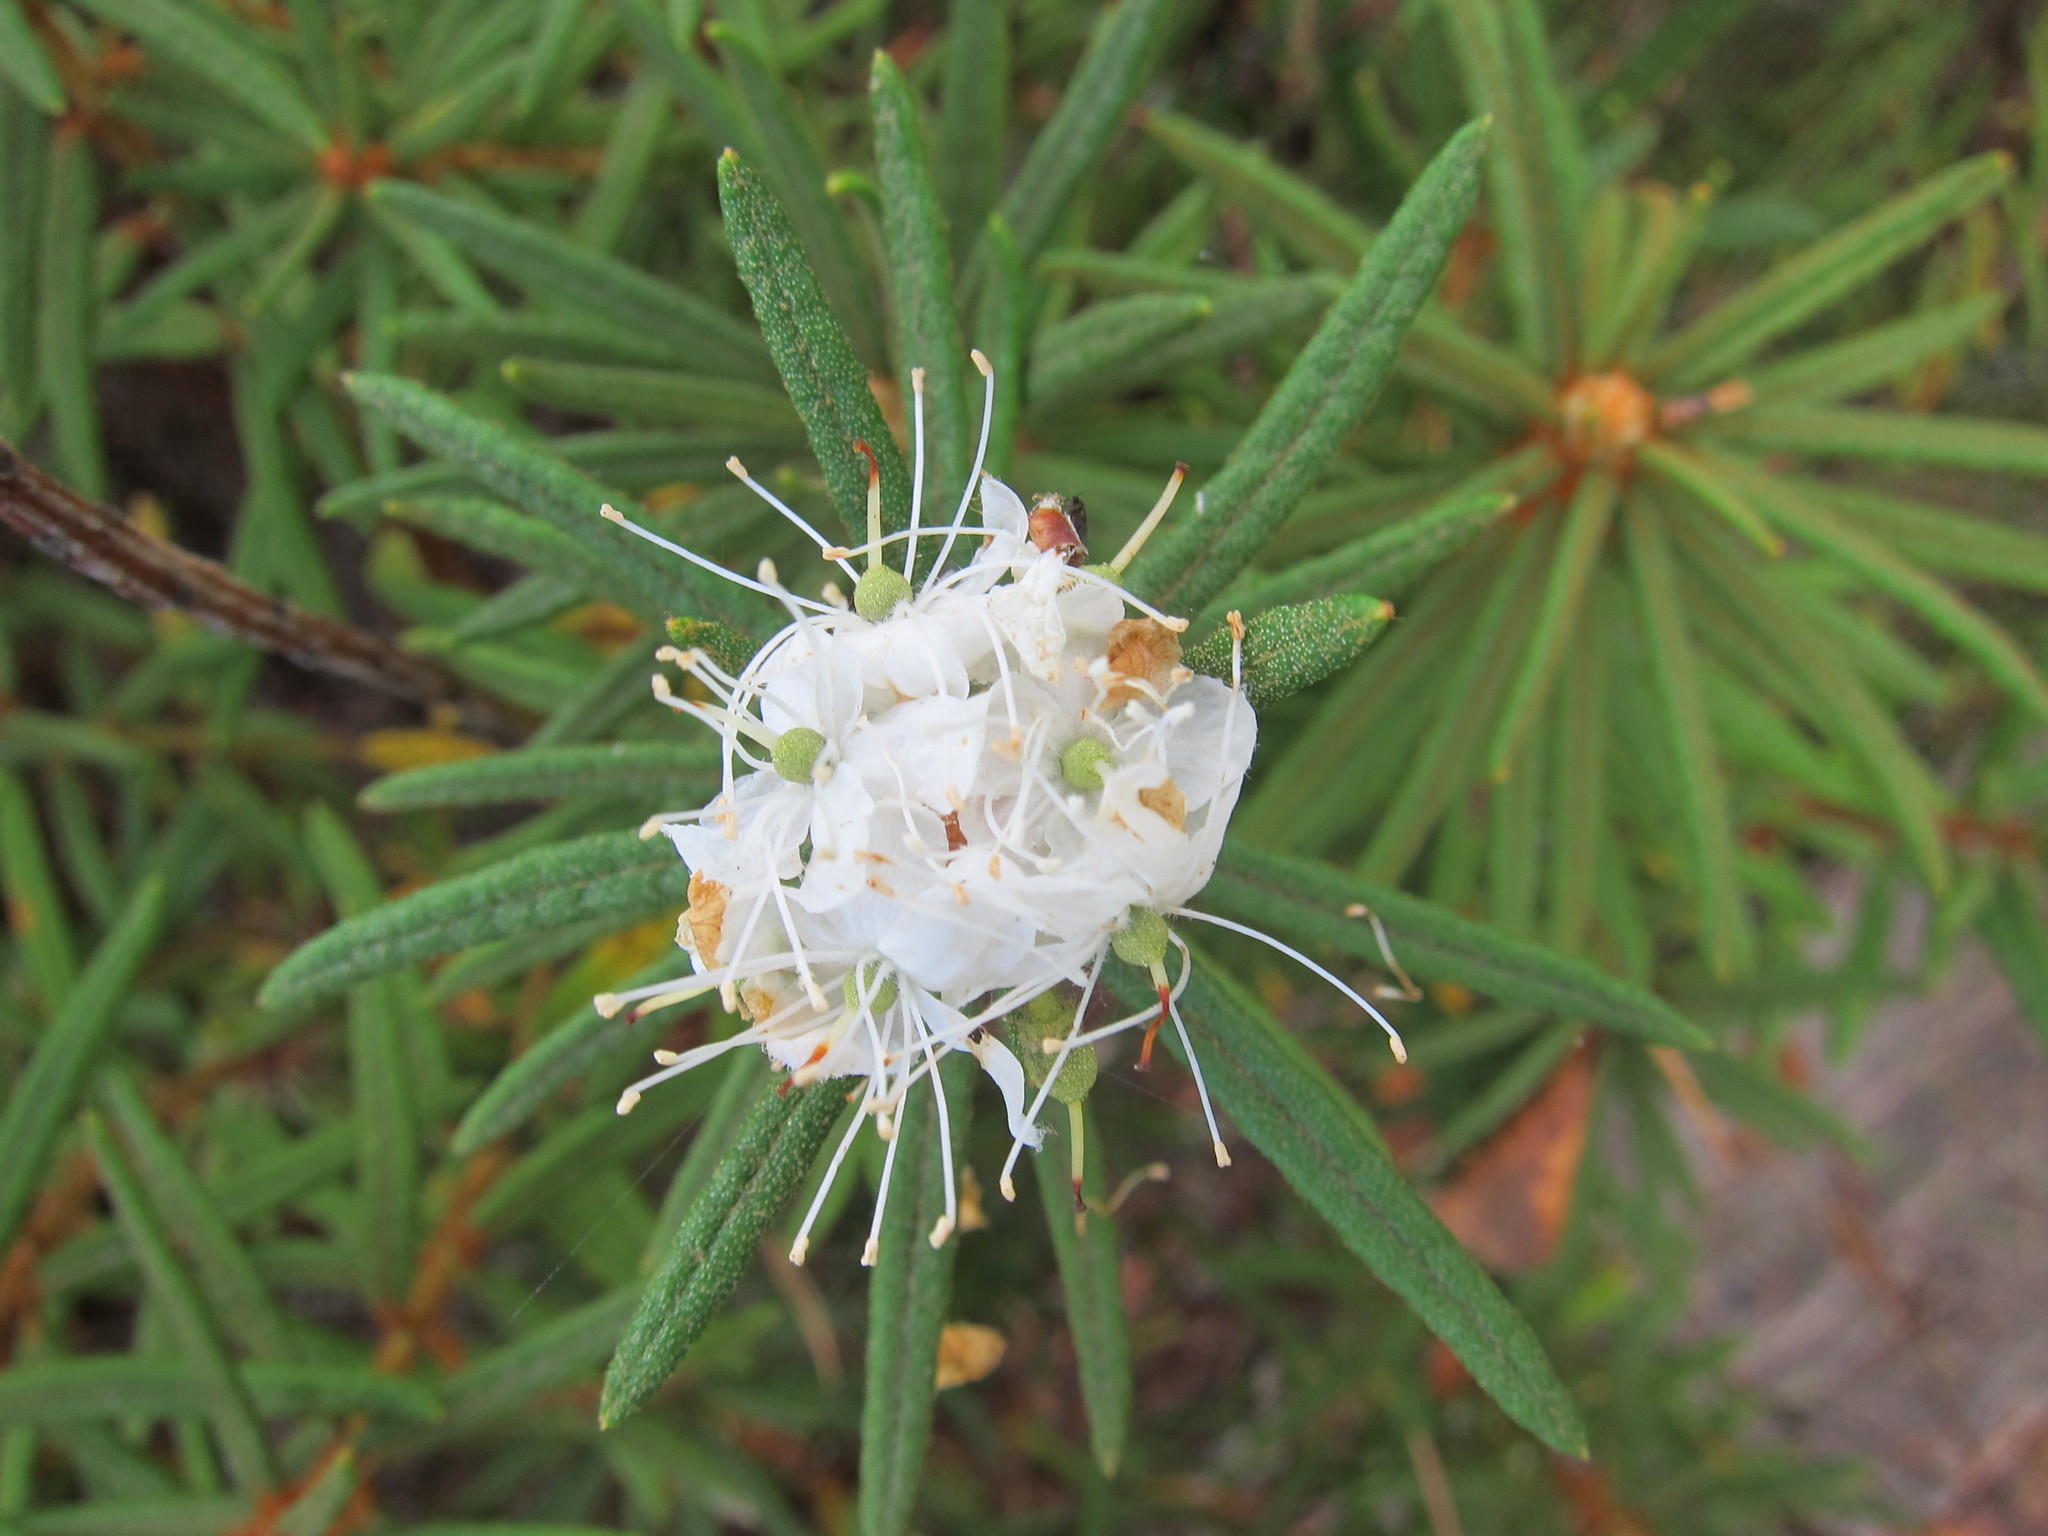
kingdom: Plantae
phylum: Tracheophyta
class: Magnoliopsida
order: Ericales
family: Ericaceae
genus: Rhododendron
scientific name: Rhododendron tomentosum
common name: Marsh labrador tea
